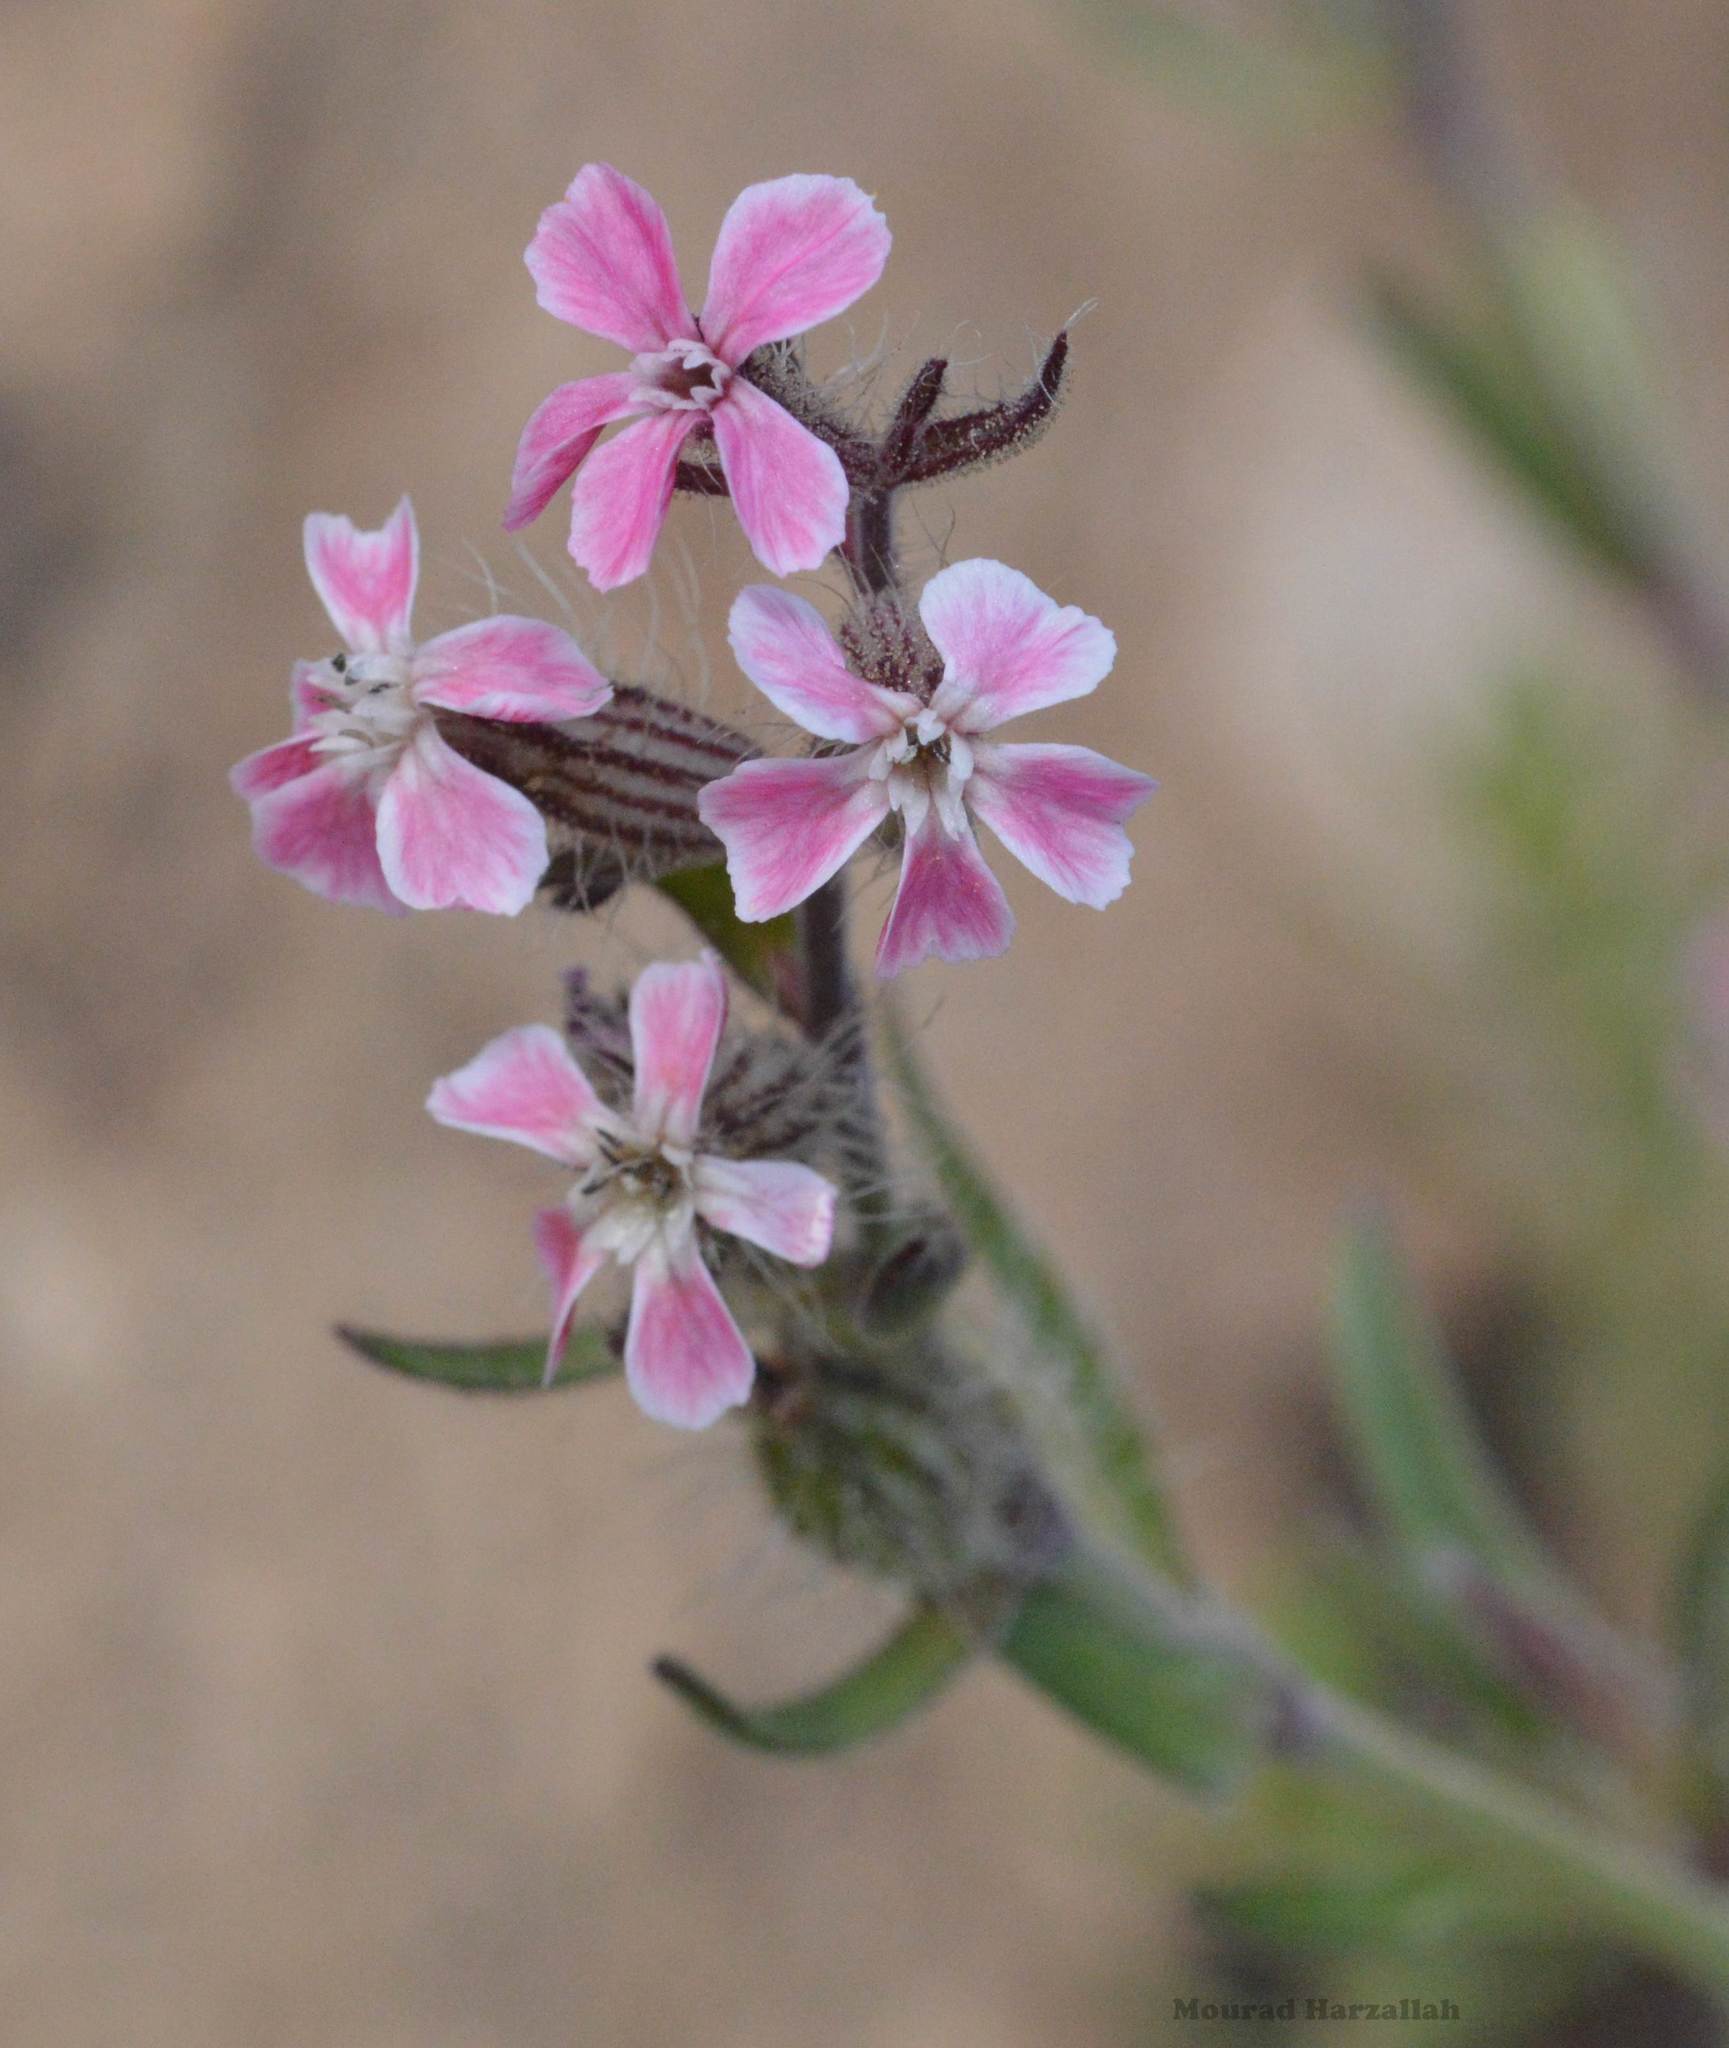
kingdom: Plantae
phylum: Tracheophyta
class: Magnoliopsida
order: Caryophyllales
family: Caryophyllaceae
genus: Silene
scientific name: Silene gallica
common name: Small-flowered catchfly
